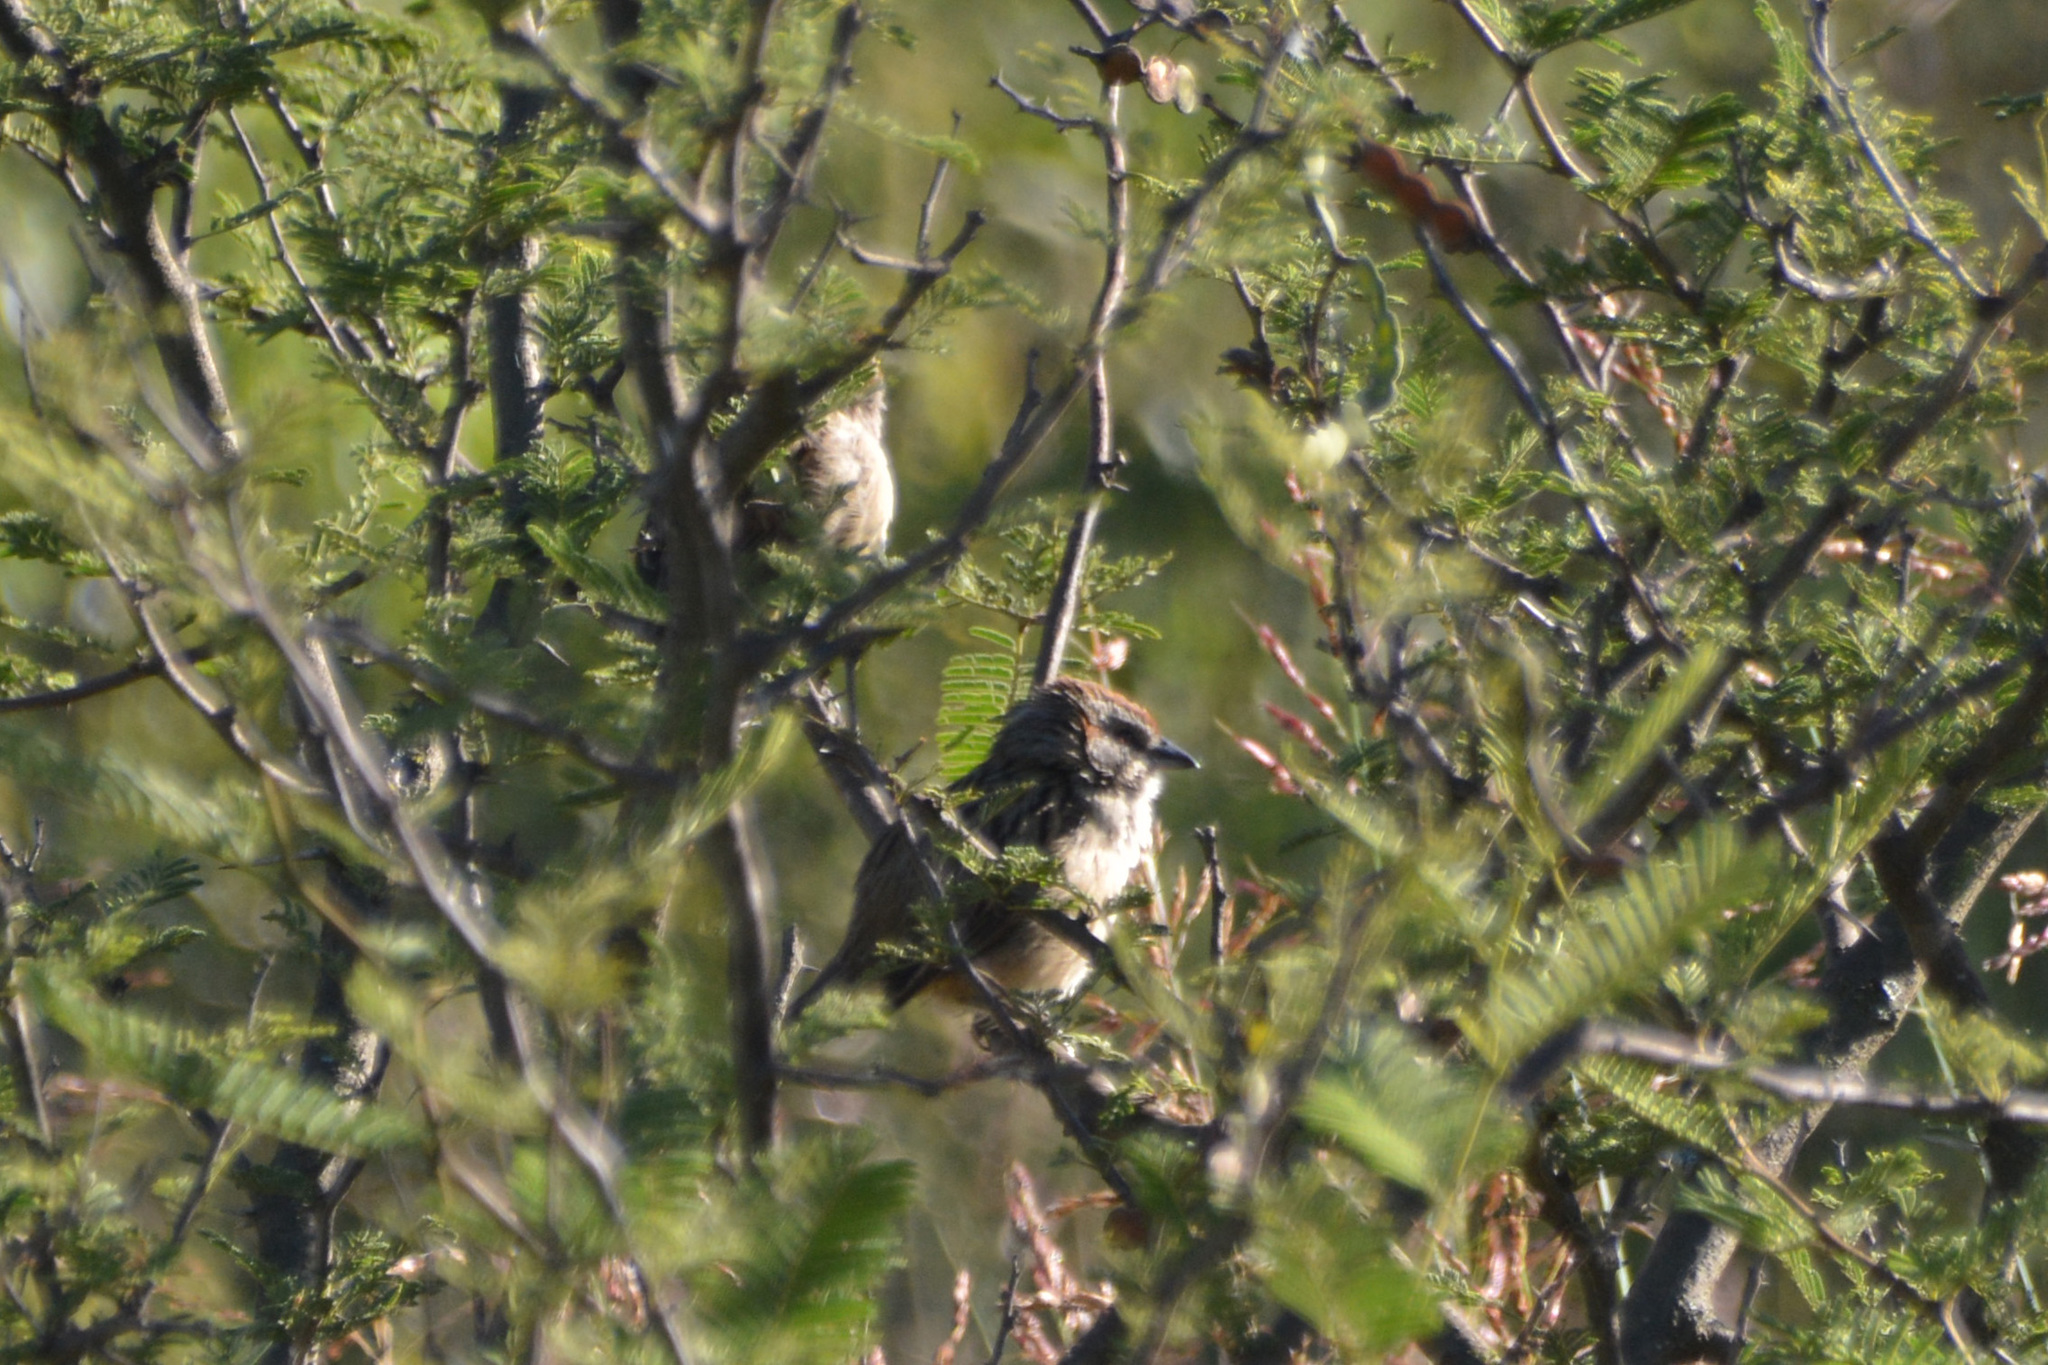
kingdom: Animalia
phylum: Chordata
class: Aves
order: Passeriformes
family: Passerellidae
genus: Rhynchospiza
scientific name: Rhynchospiza strigiceps
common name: Stripe-capped sparrow
